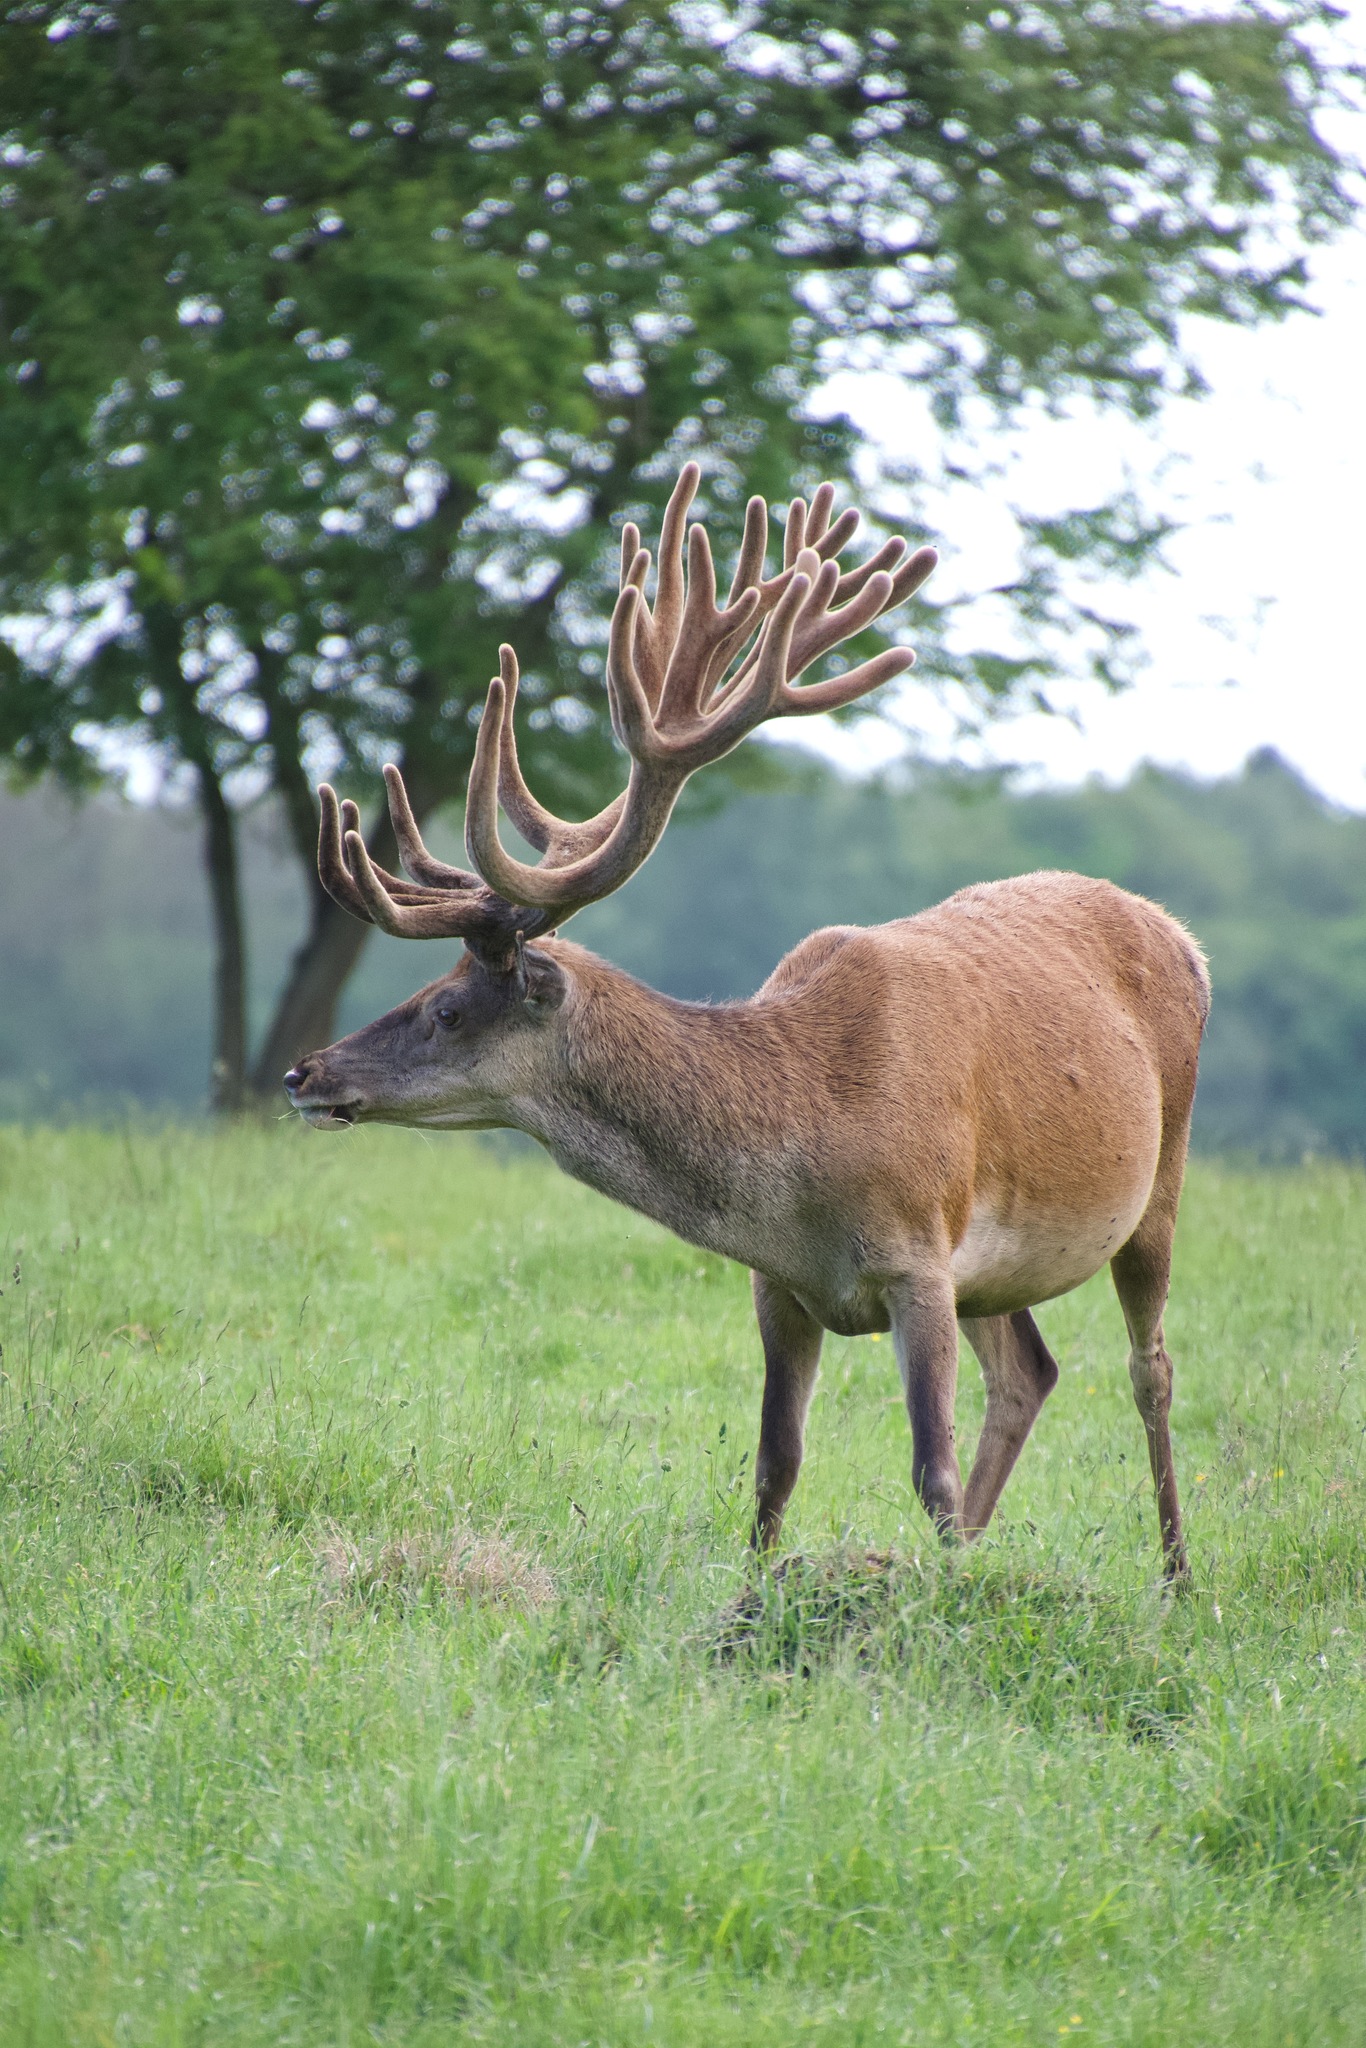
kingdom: Animalia
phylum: Chordata
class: Mammalia
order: Artiodactyla
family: Cervidae
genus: Cervus
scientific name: Cervus elaphus
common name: Red deer
